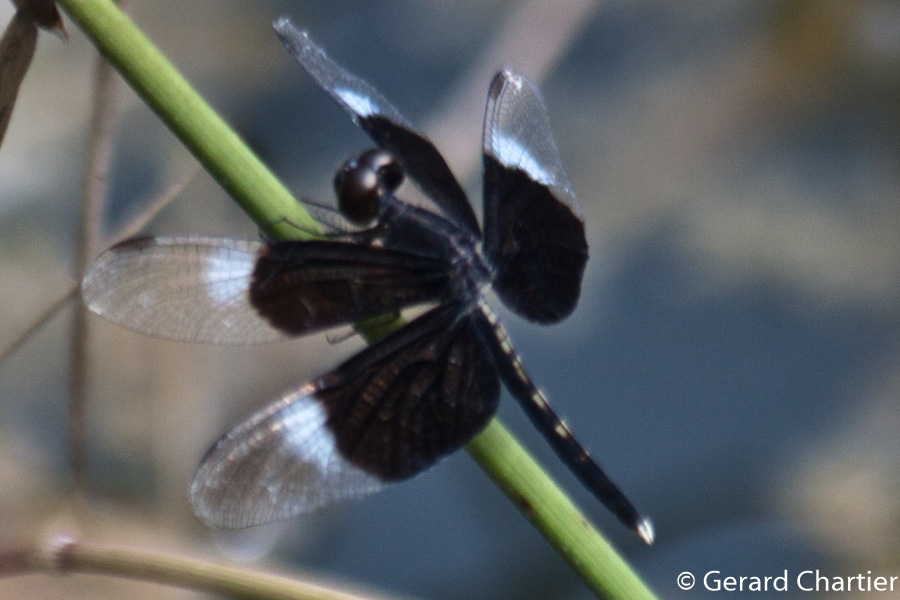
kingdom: Animalia
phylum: Arthropoda
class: Insecta
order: Odonata
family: Libellulidae
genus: Neurothemis
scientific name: Neurothemis tullia
